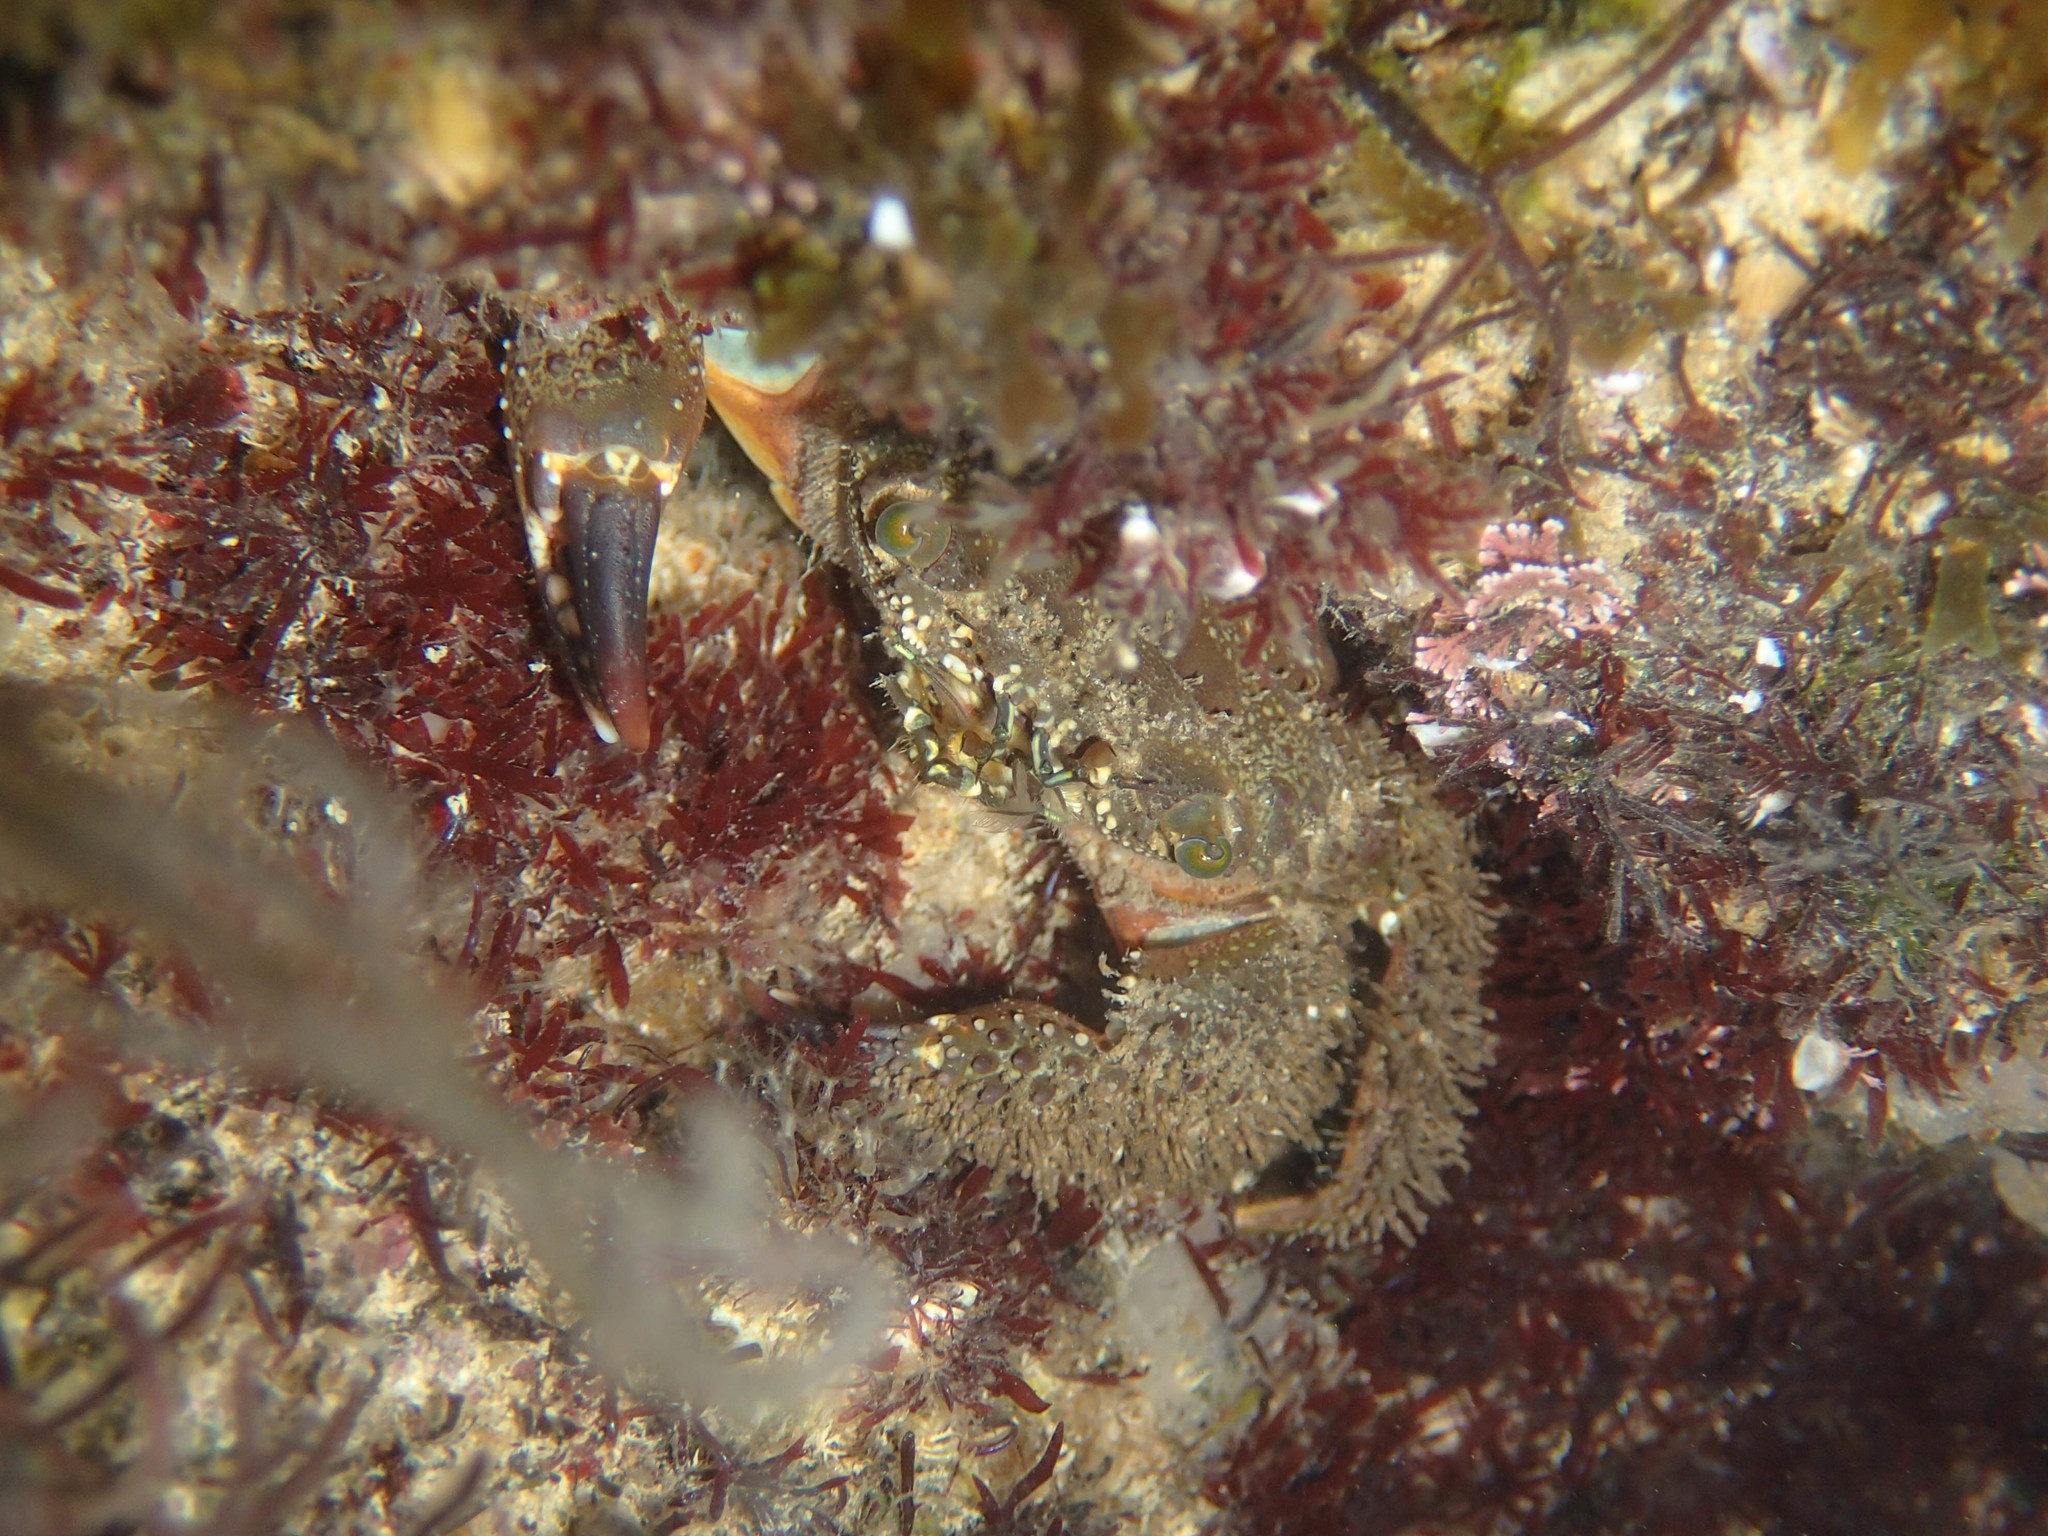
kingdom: Animalia
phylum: Arthropoda
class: Malacostraca
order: Decapoda
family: Eriphiidae
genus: Eriphia
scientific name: Eriphia verrucosa
